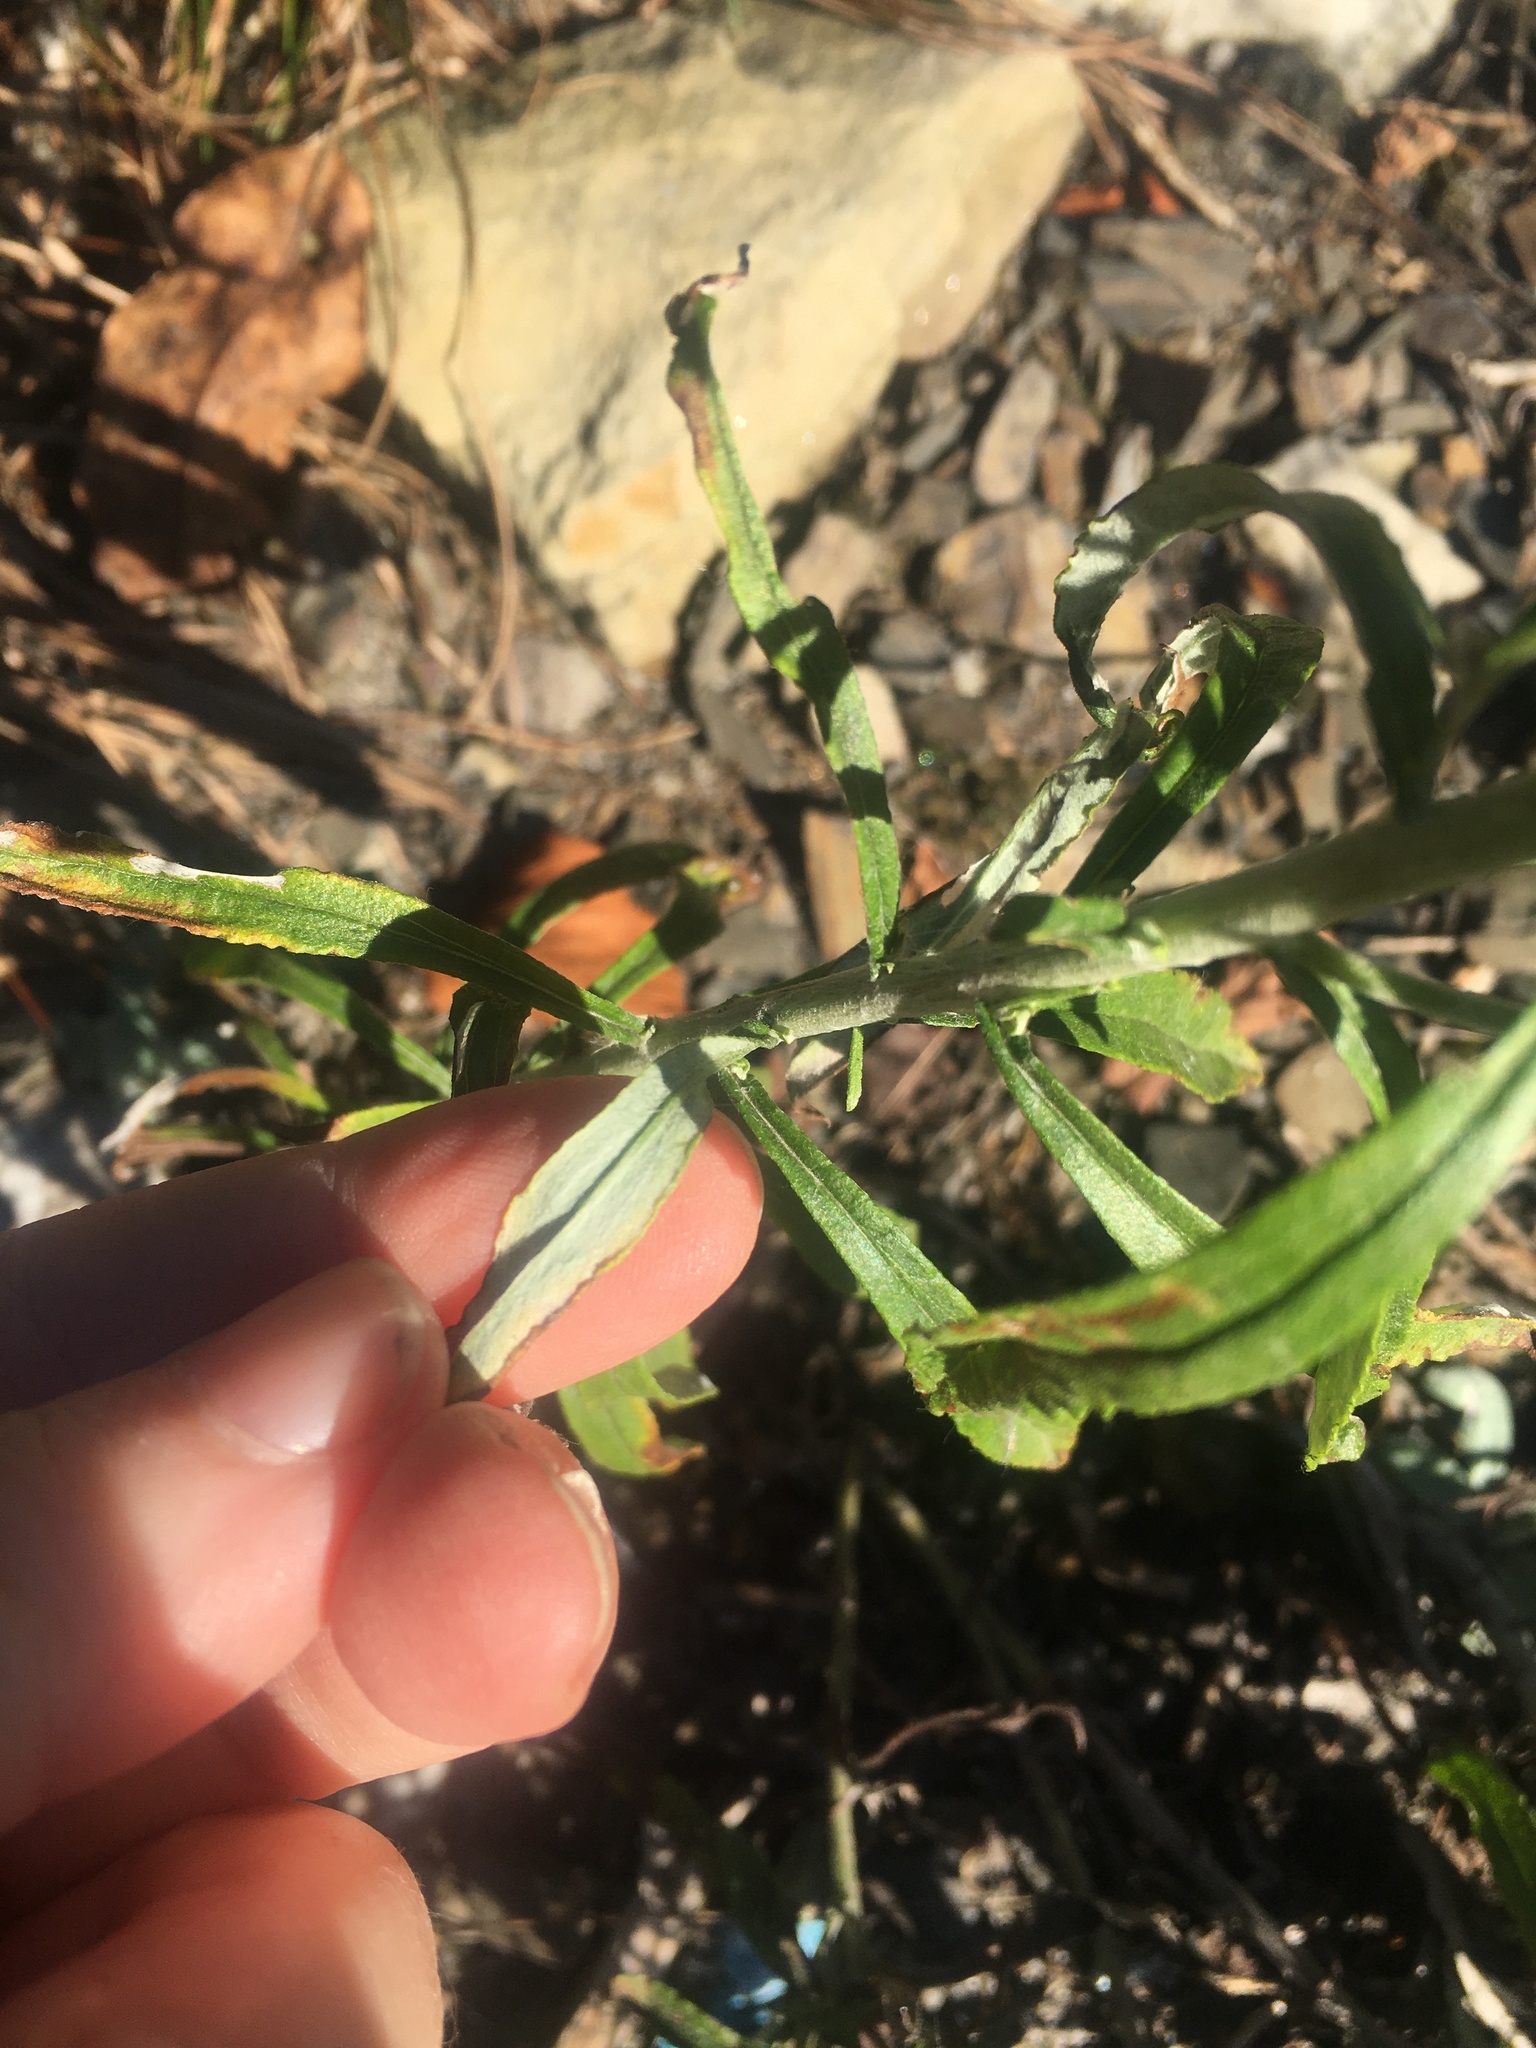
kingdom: Plantae
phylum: Tracheophyta
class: Magnoliopsida
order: Asterales
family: Asteraceae
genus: Pseudognaphalium
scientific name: Pseudognaphalium obtusifolium
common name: Eastern rabbit-tobacco
